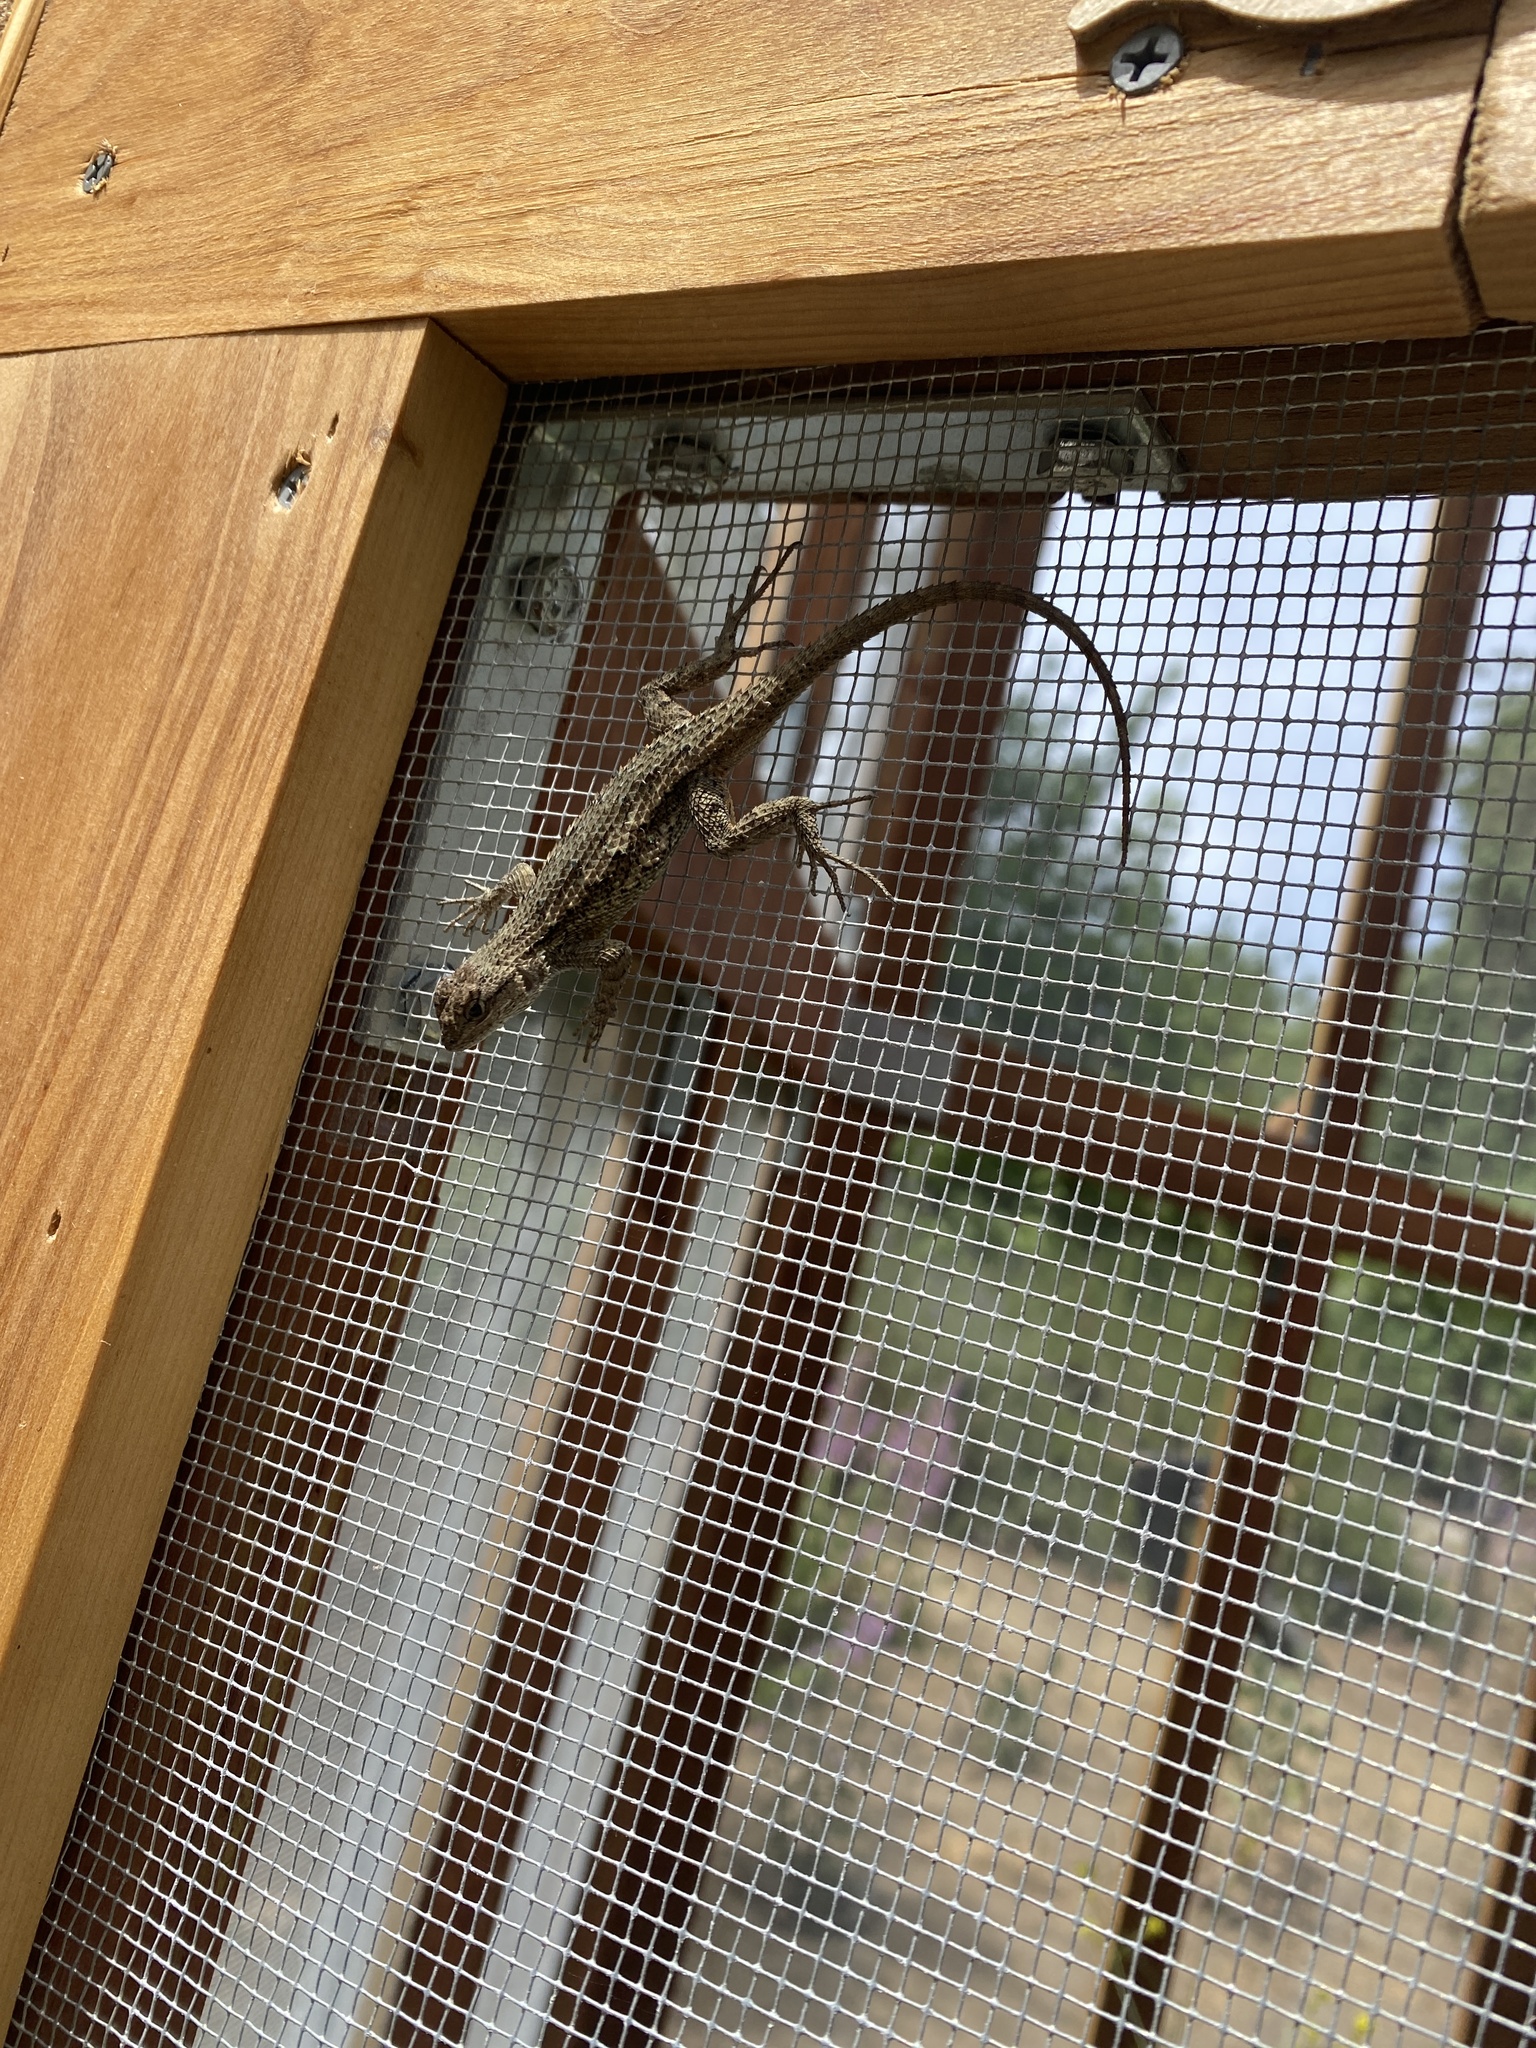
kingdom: Animalia
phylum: Chordata
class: Squamata
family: Phrynosomatidae
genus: Sceloporus
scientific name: Sceloporus occidentalis
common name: Western fence lizard
